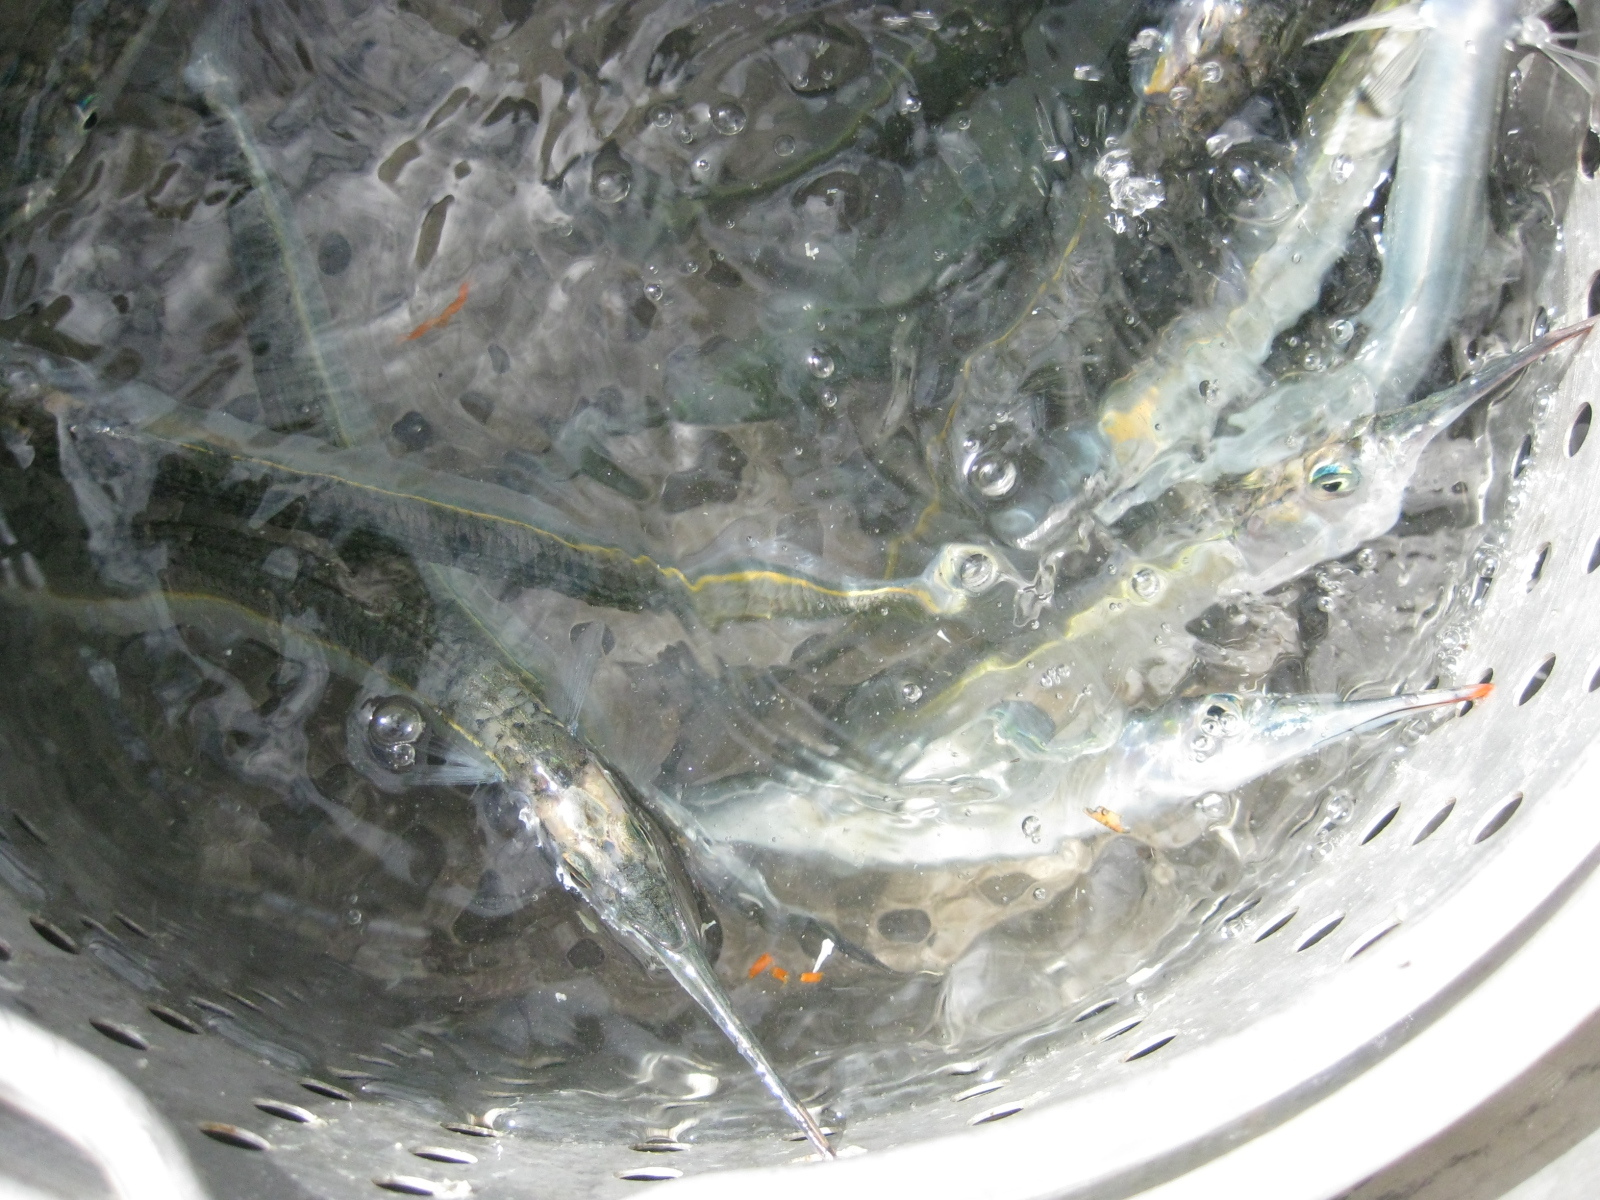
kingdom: Animalia
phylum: Chordata
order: Beloniformes
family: Hemiramphidae
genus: Hyporhamphus
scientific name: Hyporhamphus ihi
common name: Garfish
